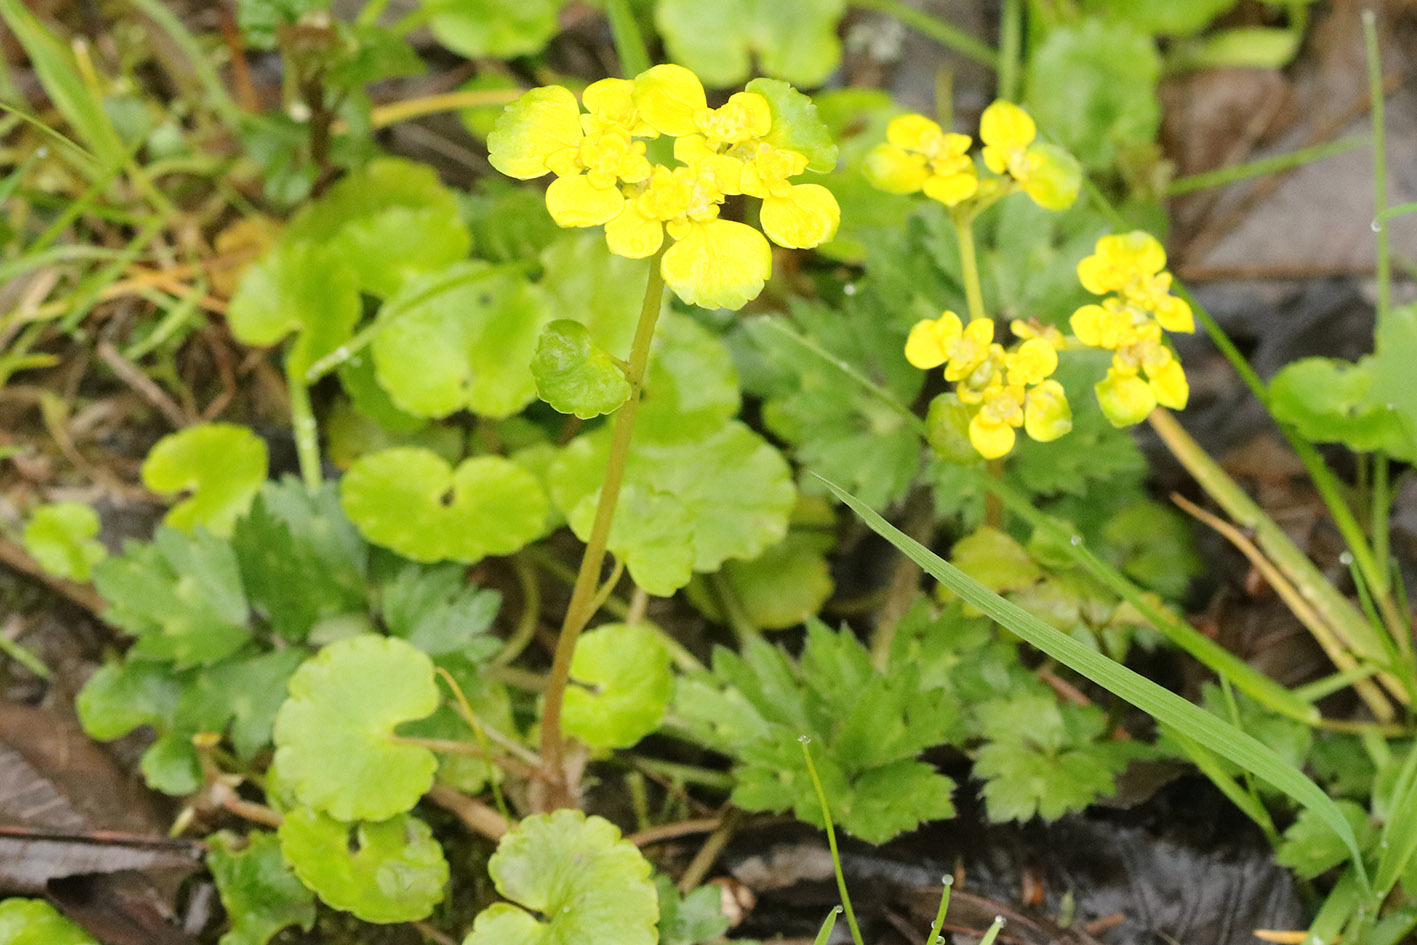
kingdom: Plantae
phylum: Tracheophyta
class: Magnoliopsida
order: Saxifragales
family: Saxifragaceae
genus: Chrysosplenium
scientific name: Chrysosplenium alternifolium
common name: Alternate-leaved golden-saxifrage
